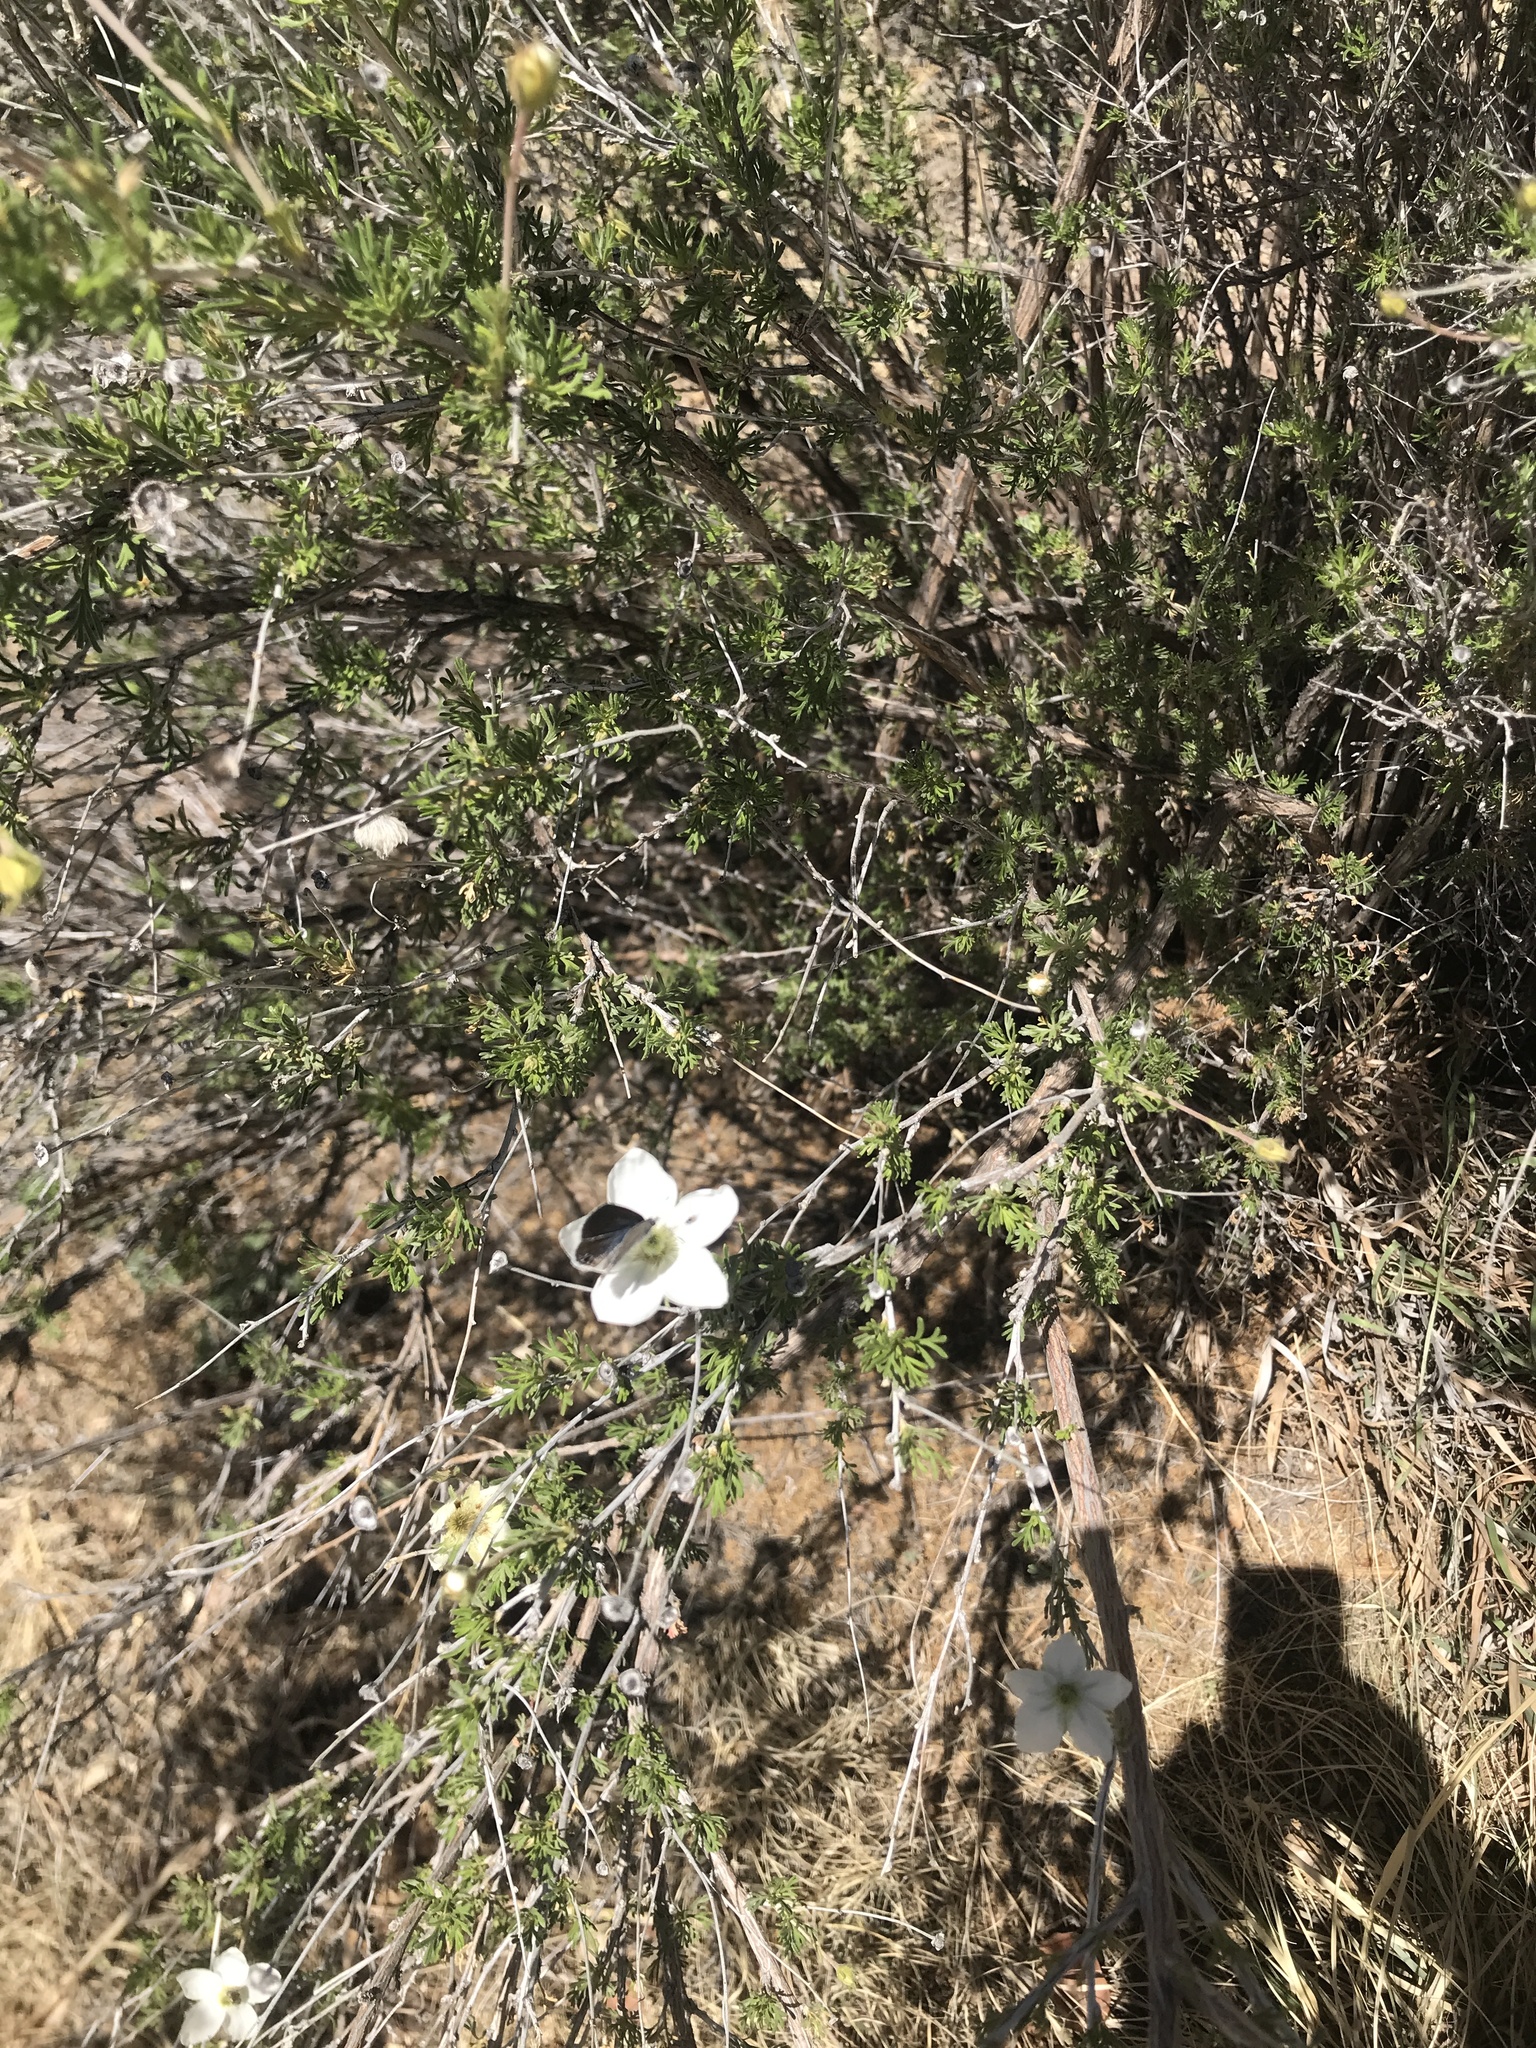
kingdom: Animalia
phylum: Arthropoda
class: Insecta
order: Lepidoptera
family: Lycaenidae
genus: Leptotes
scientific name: Leptotes marina
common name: Marine blue
